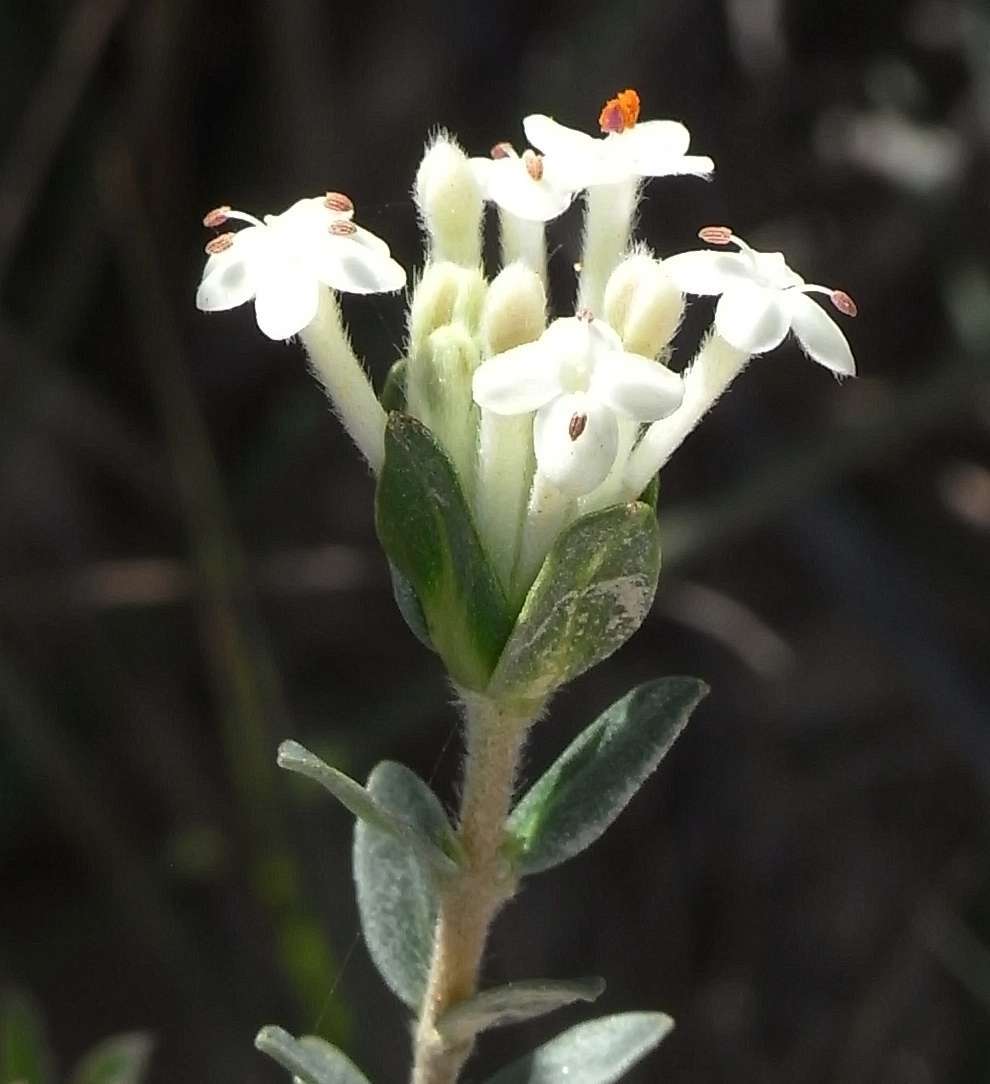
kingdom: Plantae
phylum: Tracheophyta
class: Magnoliopsida
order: Malvales
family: Thymelaeaceae
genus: Pimelea
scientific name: Pimelea humilis
